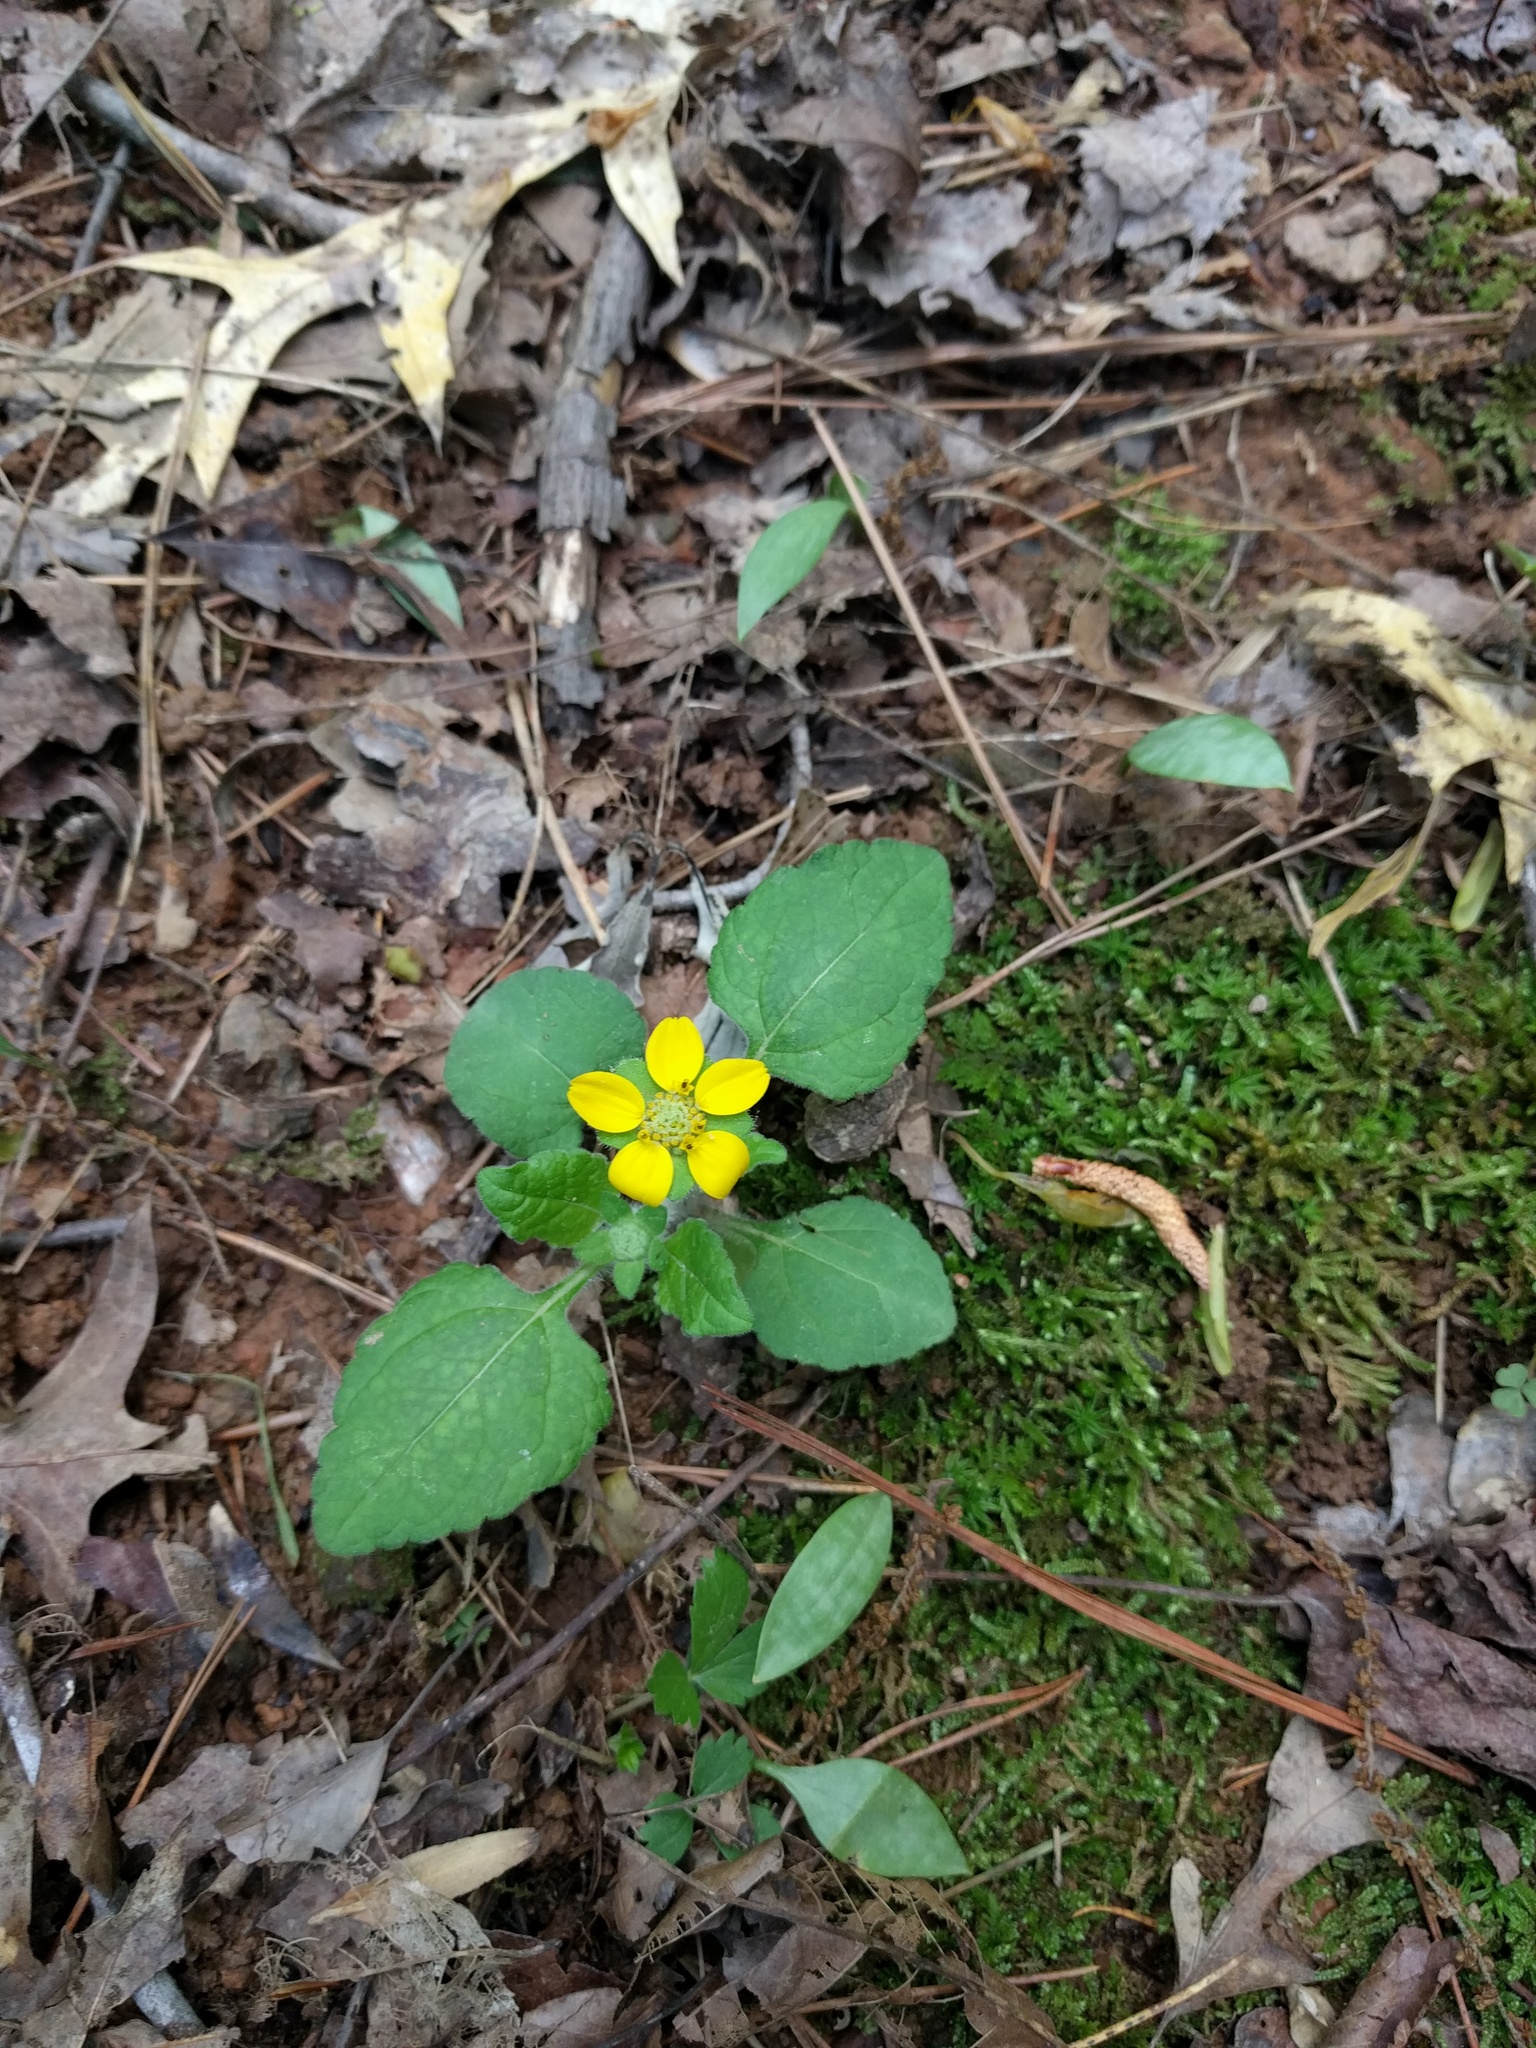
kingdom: Plantae
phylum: Tracheophyta
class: Magnoliopsida
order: Asterales
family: Asteraceae
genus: Chrysogonum
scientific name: Chrysogonum virginianum
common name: Golden-knee
